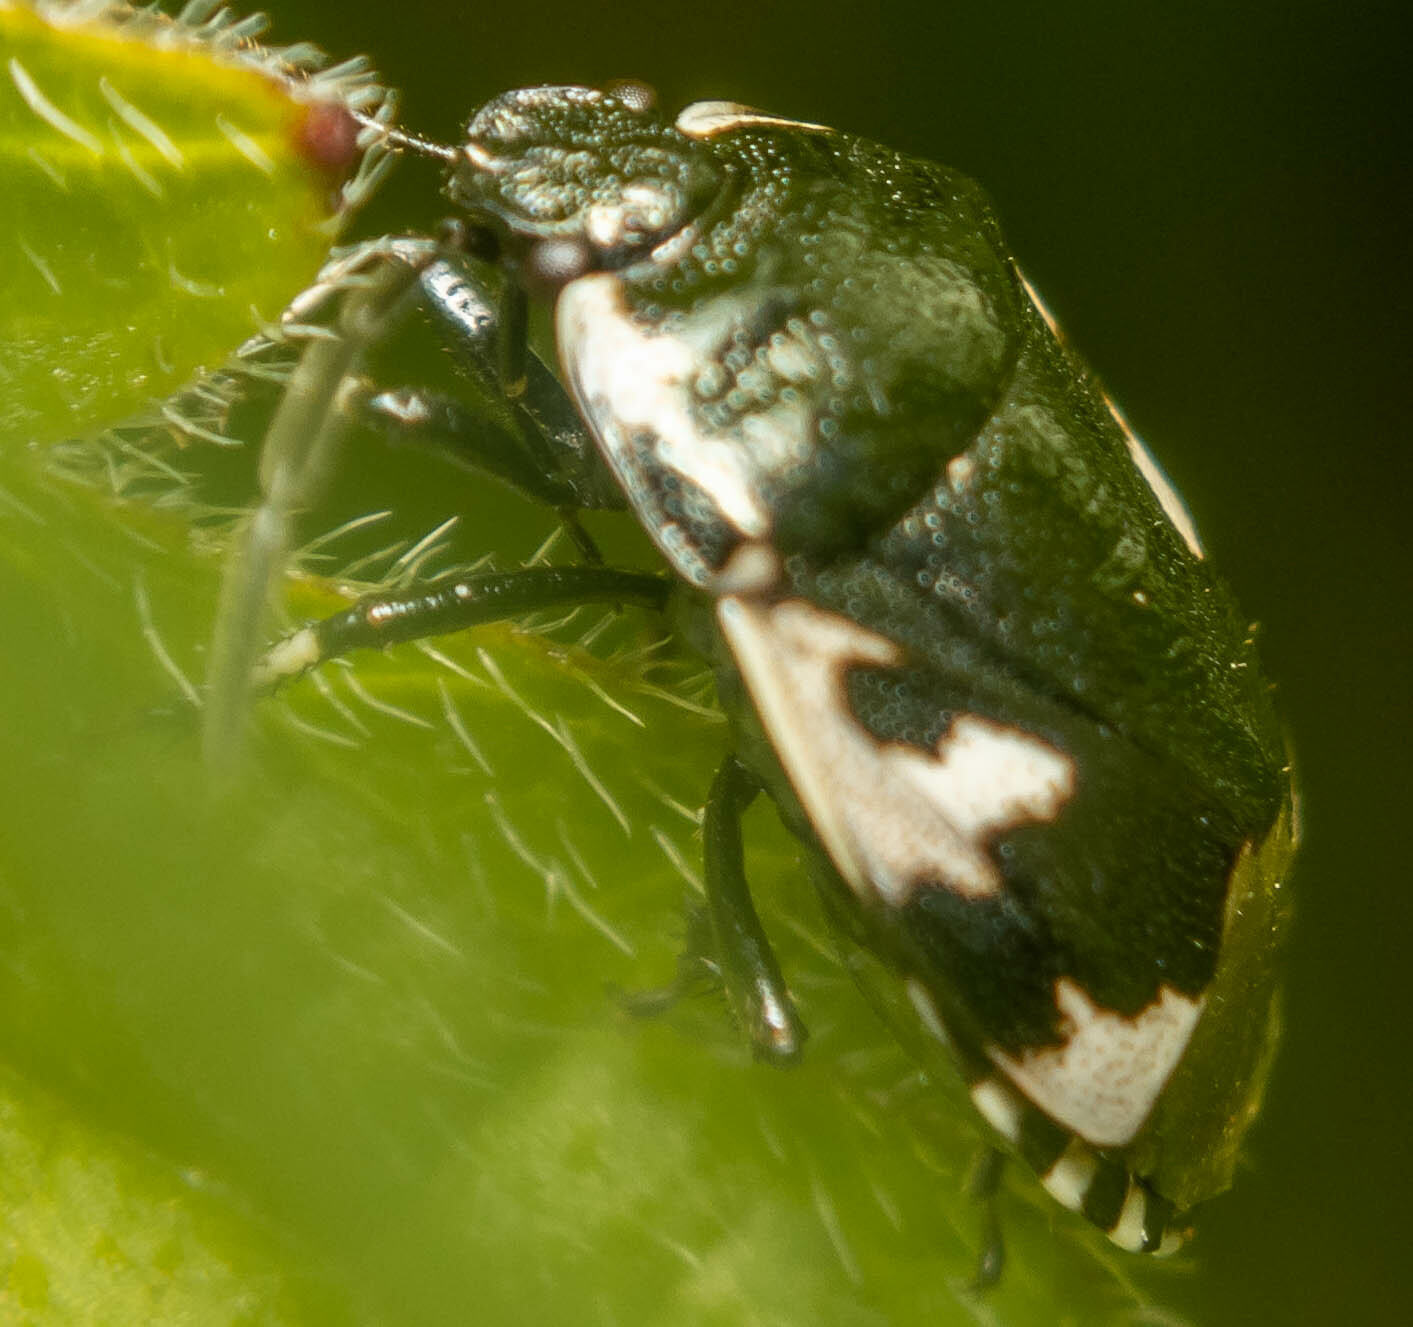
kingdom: Animalia
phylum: Arthropoda
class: Insecta
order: Hemiptera
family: Cydnidae
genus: Tritomegas
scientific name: Tritomegas bicolor
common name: Pied shieldbug
